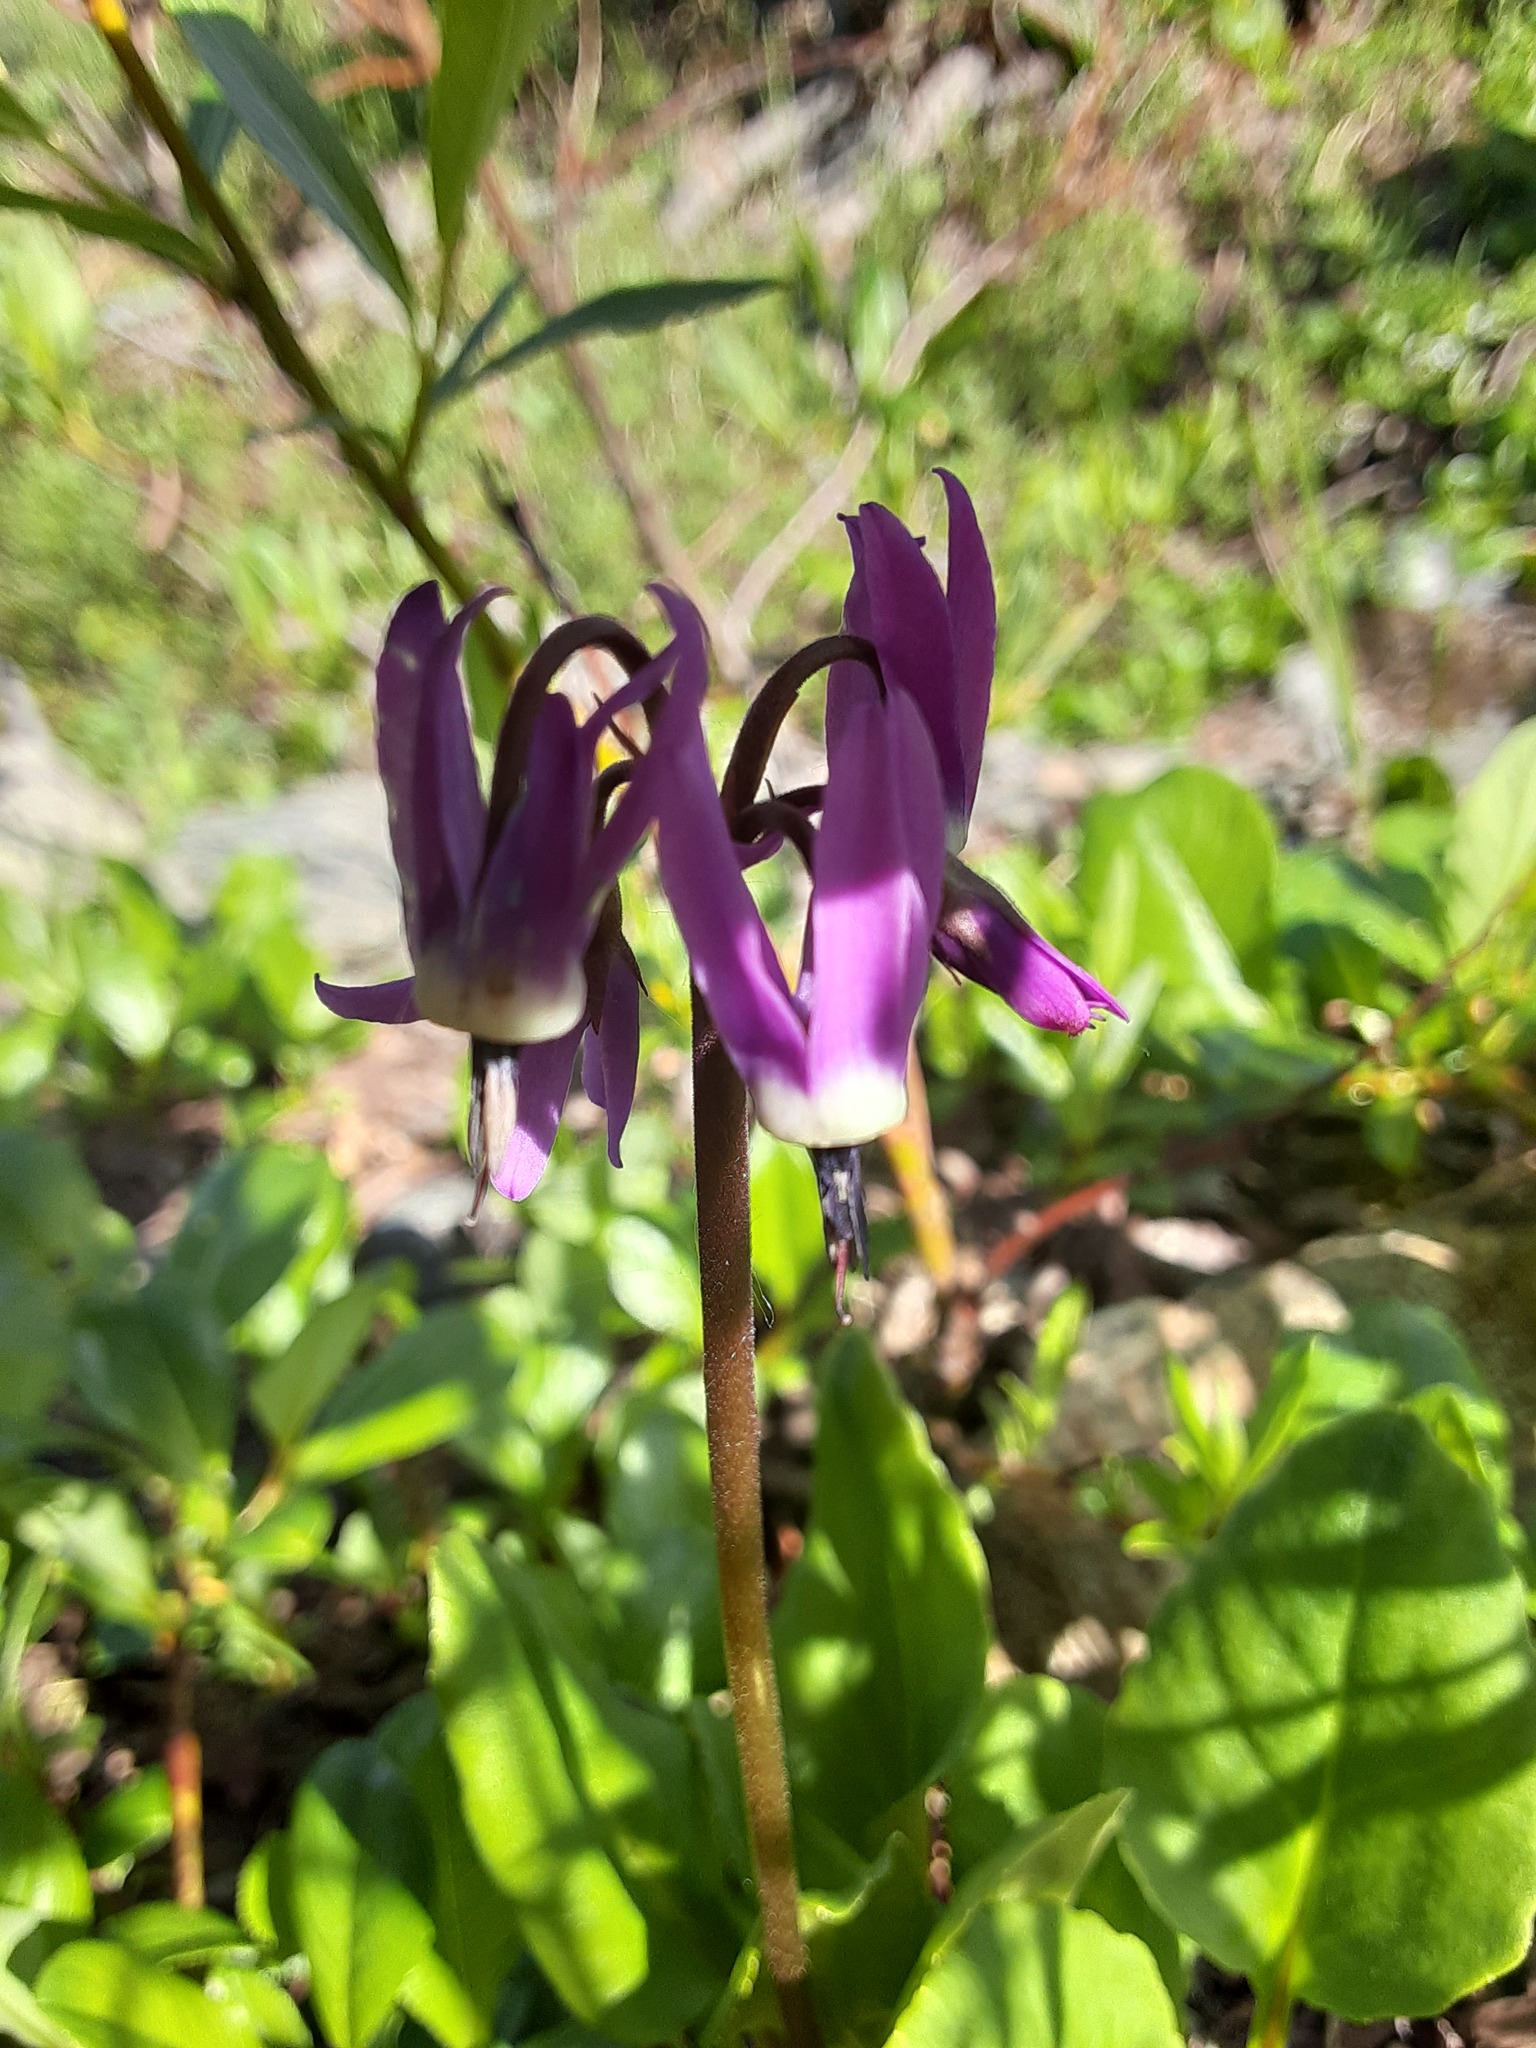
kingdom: Plantae
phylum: Tracheophyta
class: Magnoliopsida
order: Ericales
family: Primulaceae
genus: Dodecatheon
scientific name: Dodecatheon frigidum
